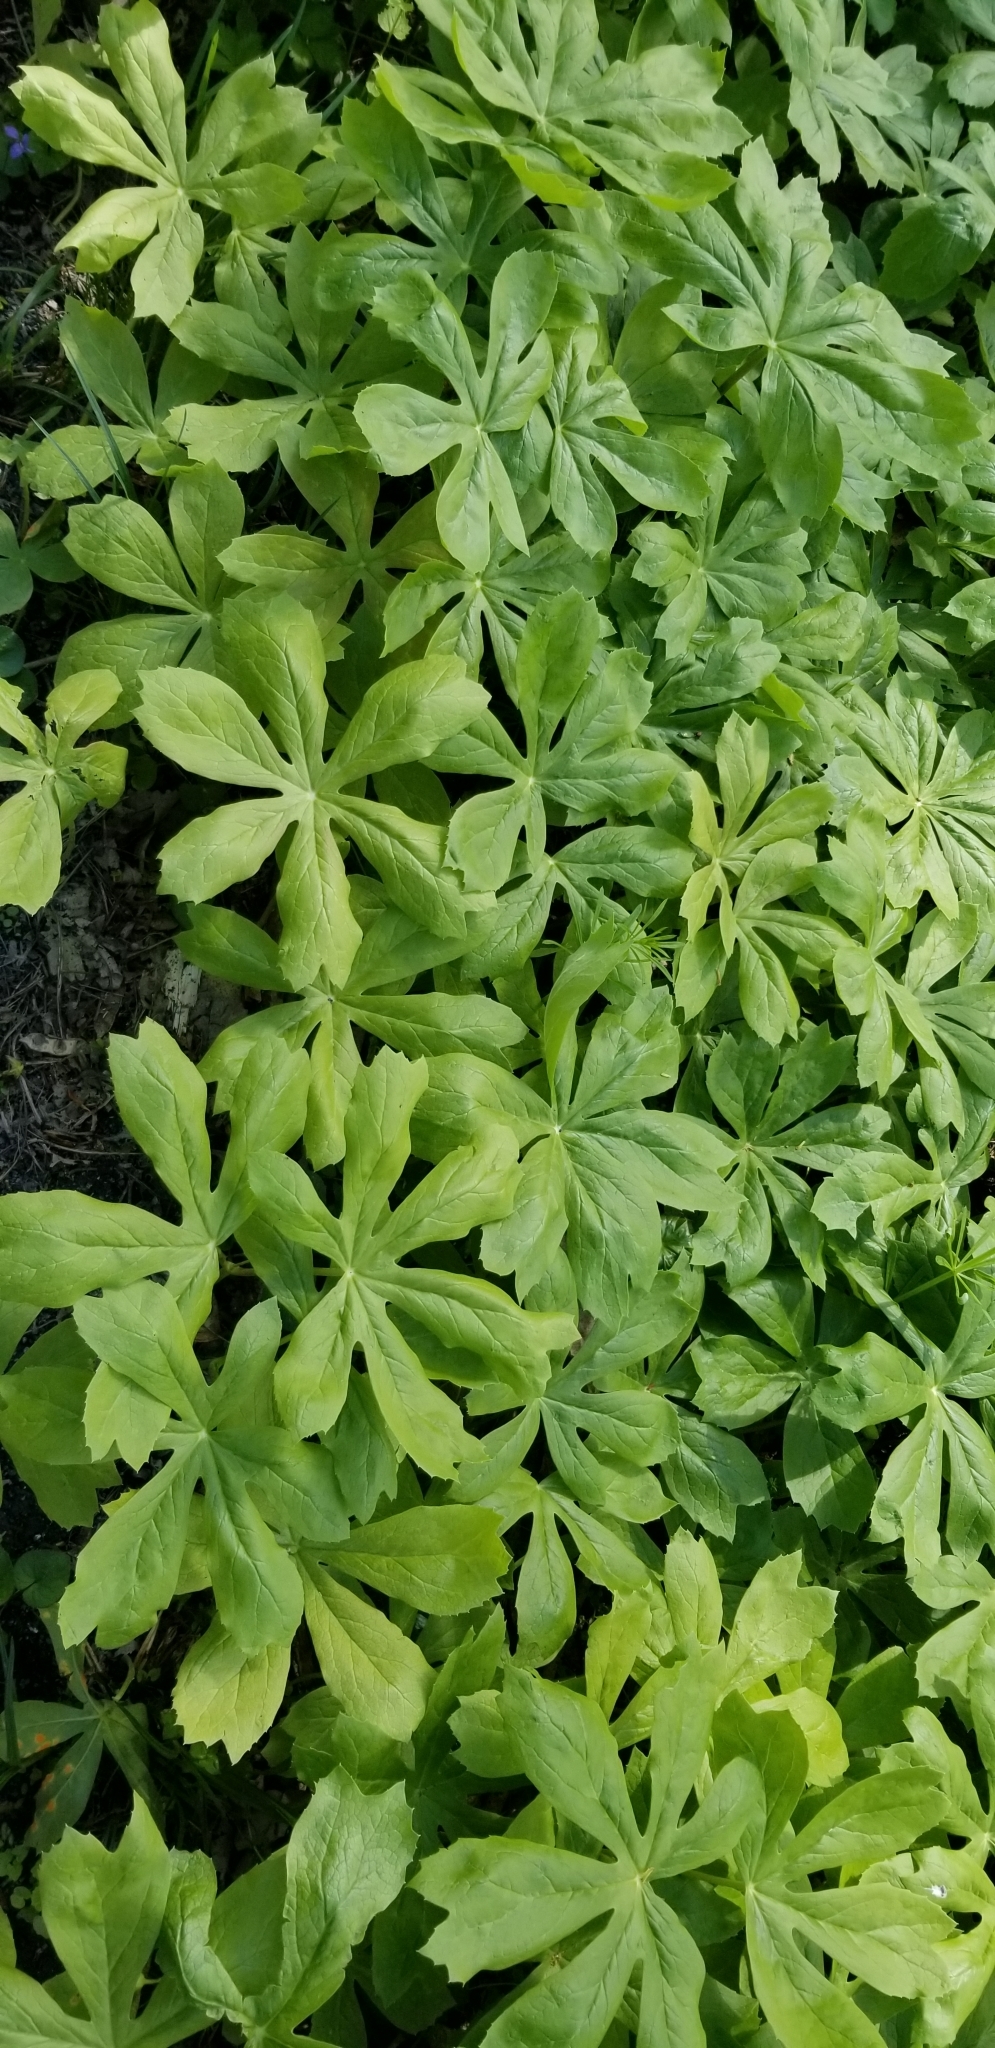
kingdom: Plantae
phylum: Tracheophyta
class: Magnoliopsida
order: Ranunculales
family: Berberidaceae
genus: Podophyllum
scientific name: Podophyllum peltatum
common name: Wild mandrake
